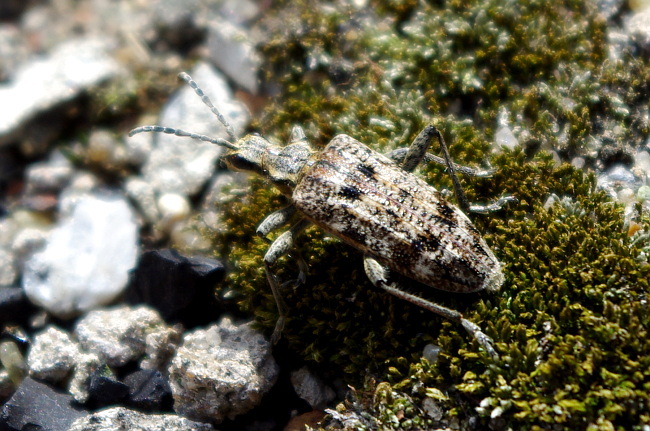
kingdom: Animalia
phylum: Arthropoda
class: Insecta
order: Coleoptera
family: Cerambycidae
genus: Rhagium
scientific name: Rhagium inquisitor
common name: Ribbed pine borer
